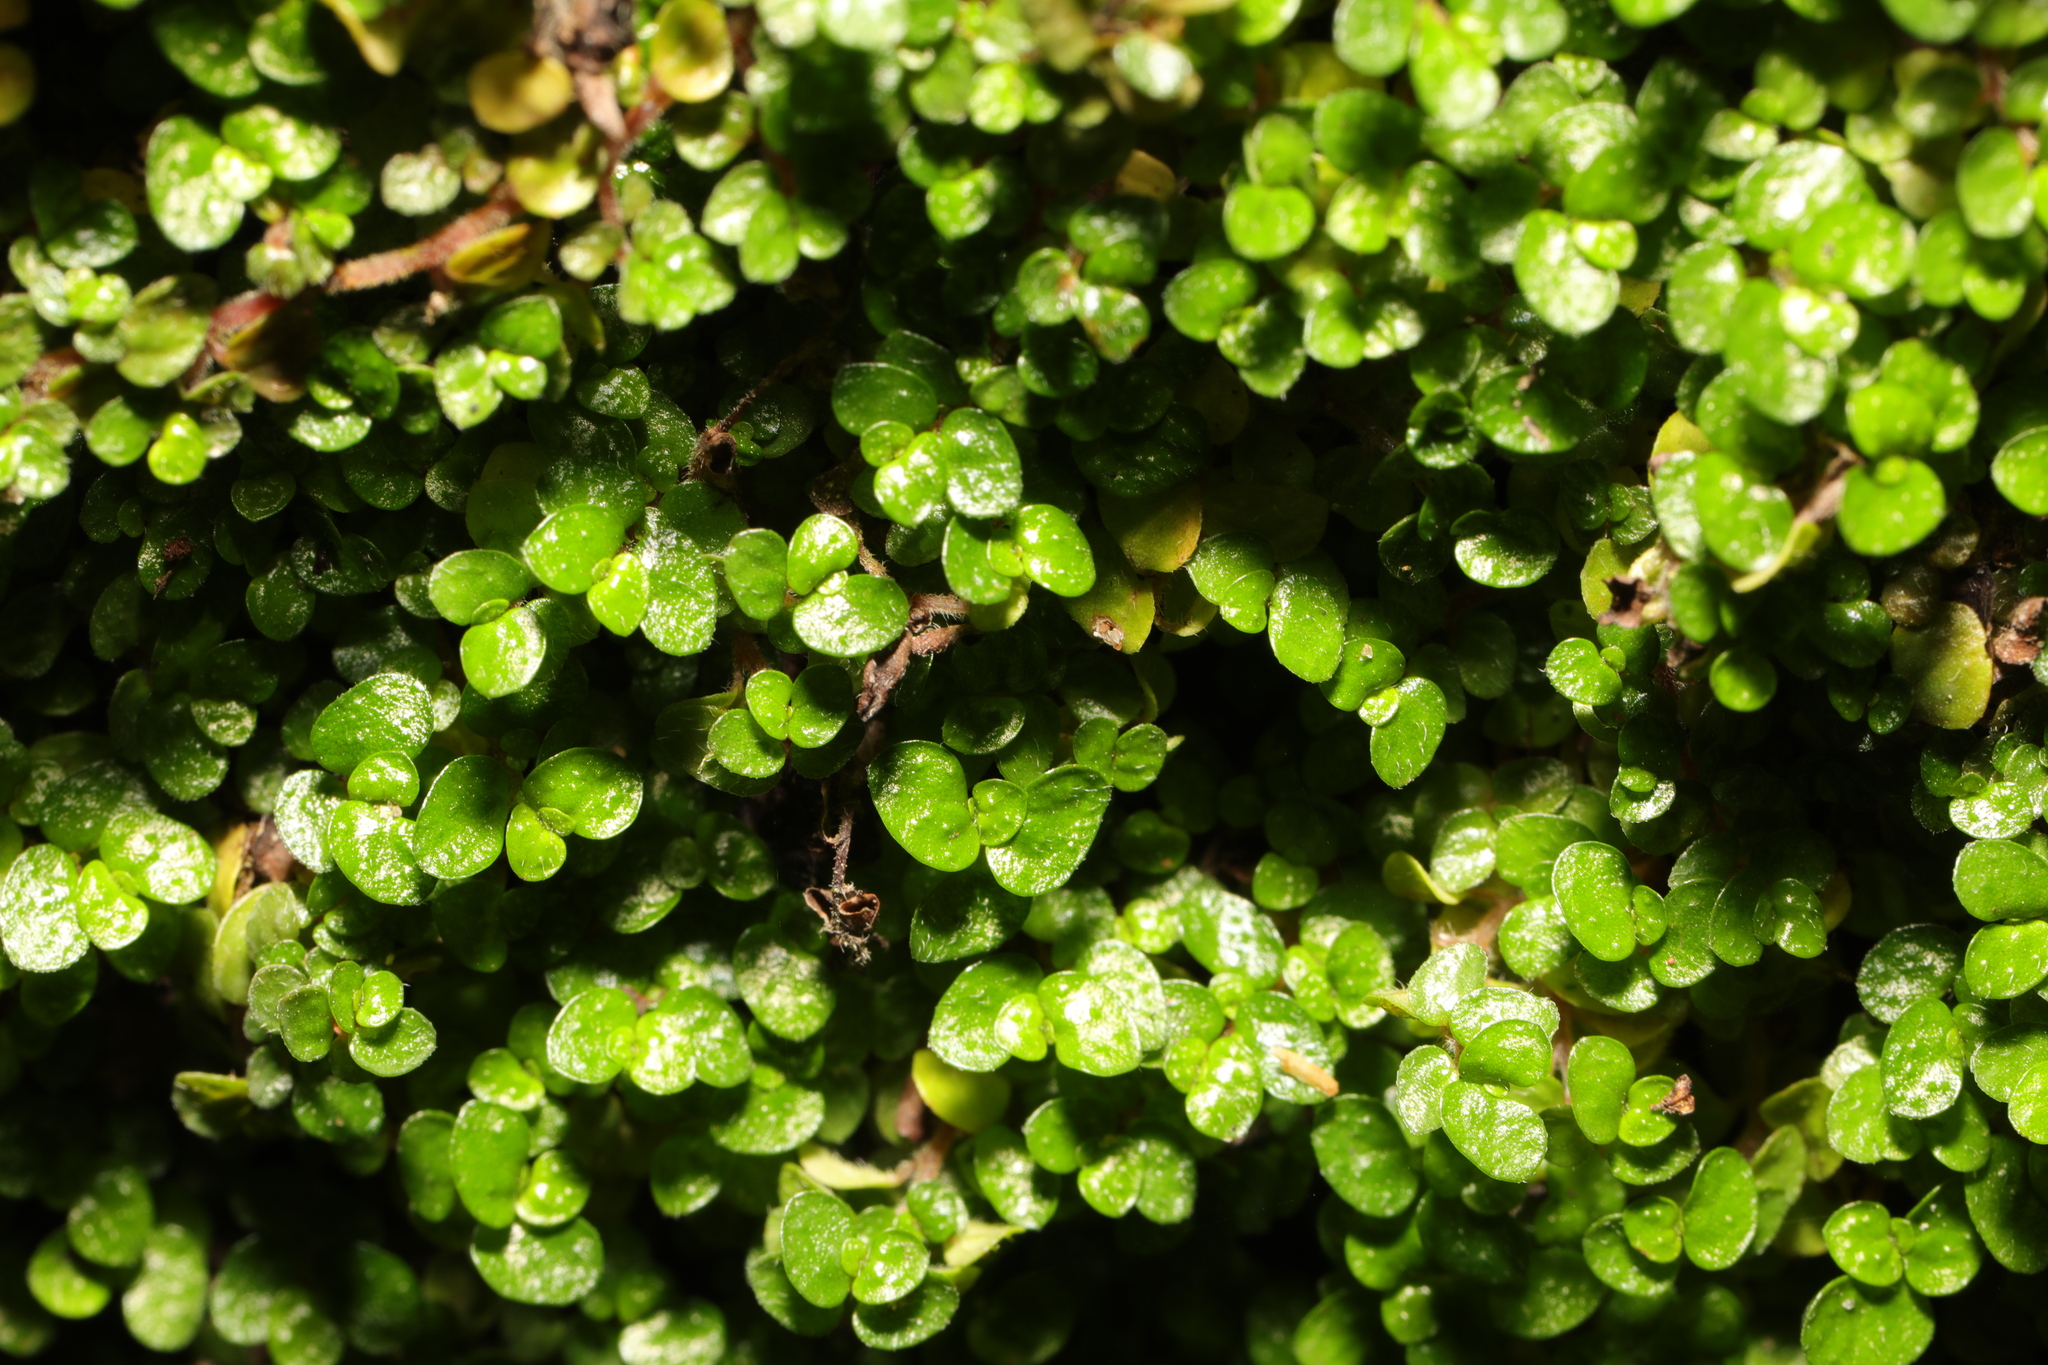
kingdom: Plantae
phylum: Tracheophyta
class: Magnoliopsida
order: Rosales
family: Urticaceae
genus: Soleirolia
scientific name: Soleirolia soleirolii
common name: Mind-your-own-business
